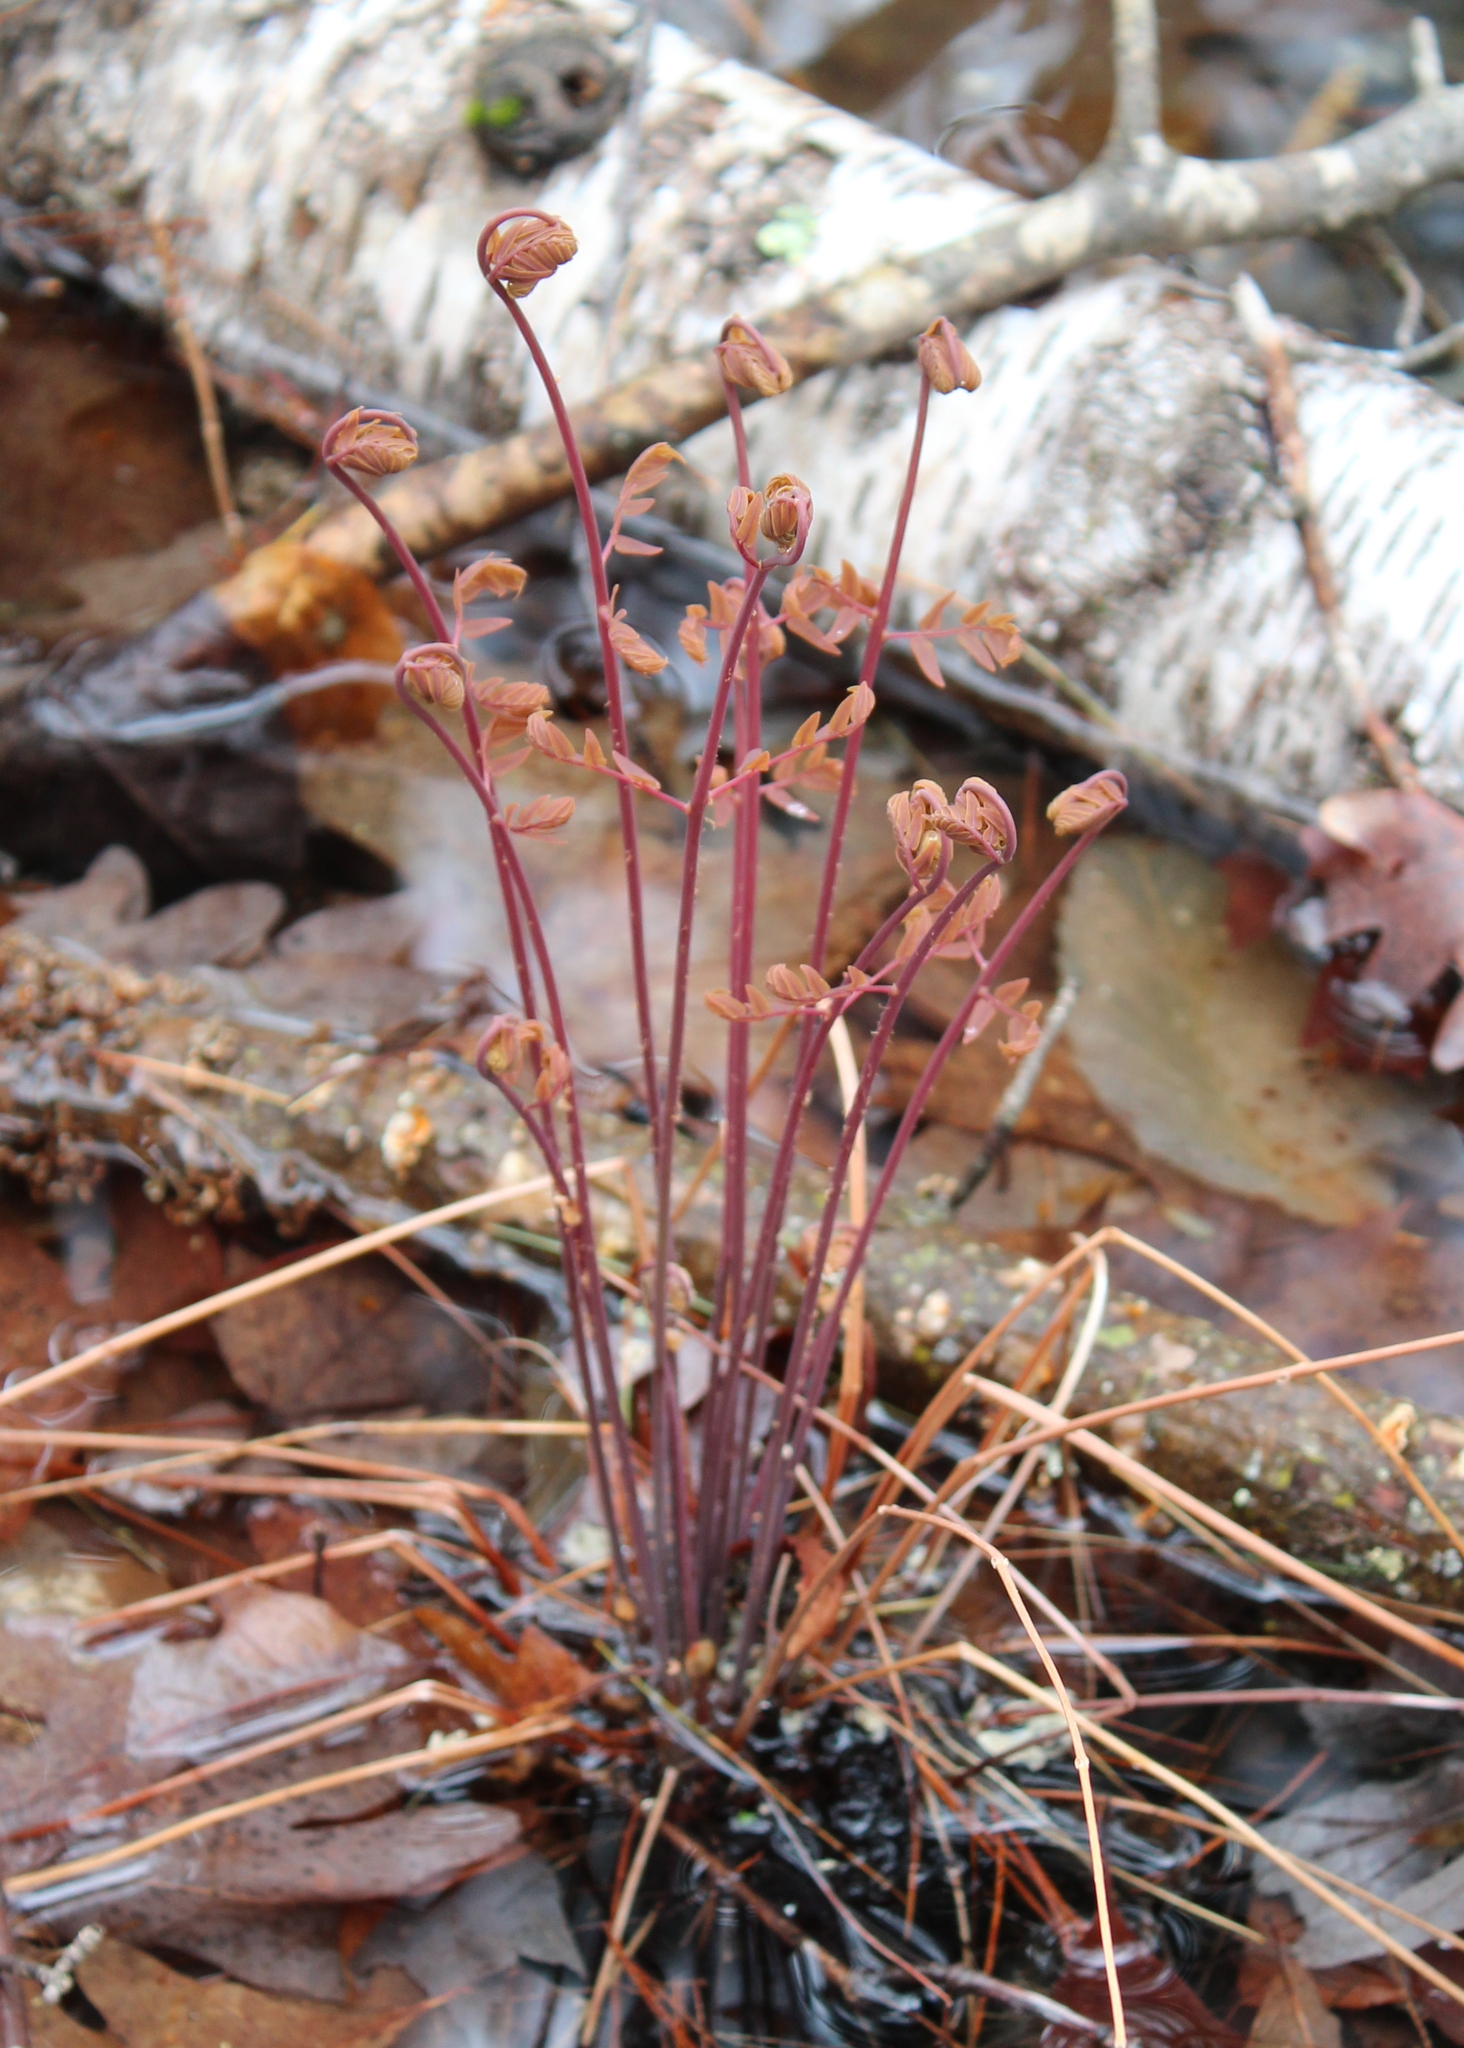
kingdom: Plantae
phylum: Tracheophyta
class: Polypodiopsida
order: Osmundales
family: Osmundaceae
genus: Osmunda
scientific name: Osmunda spectabilis
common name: American royal fern
